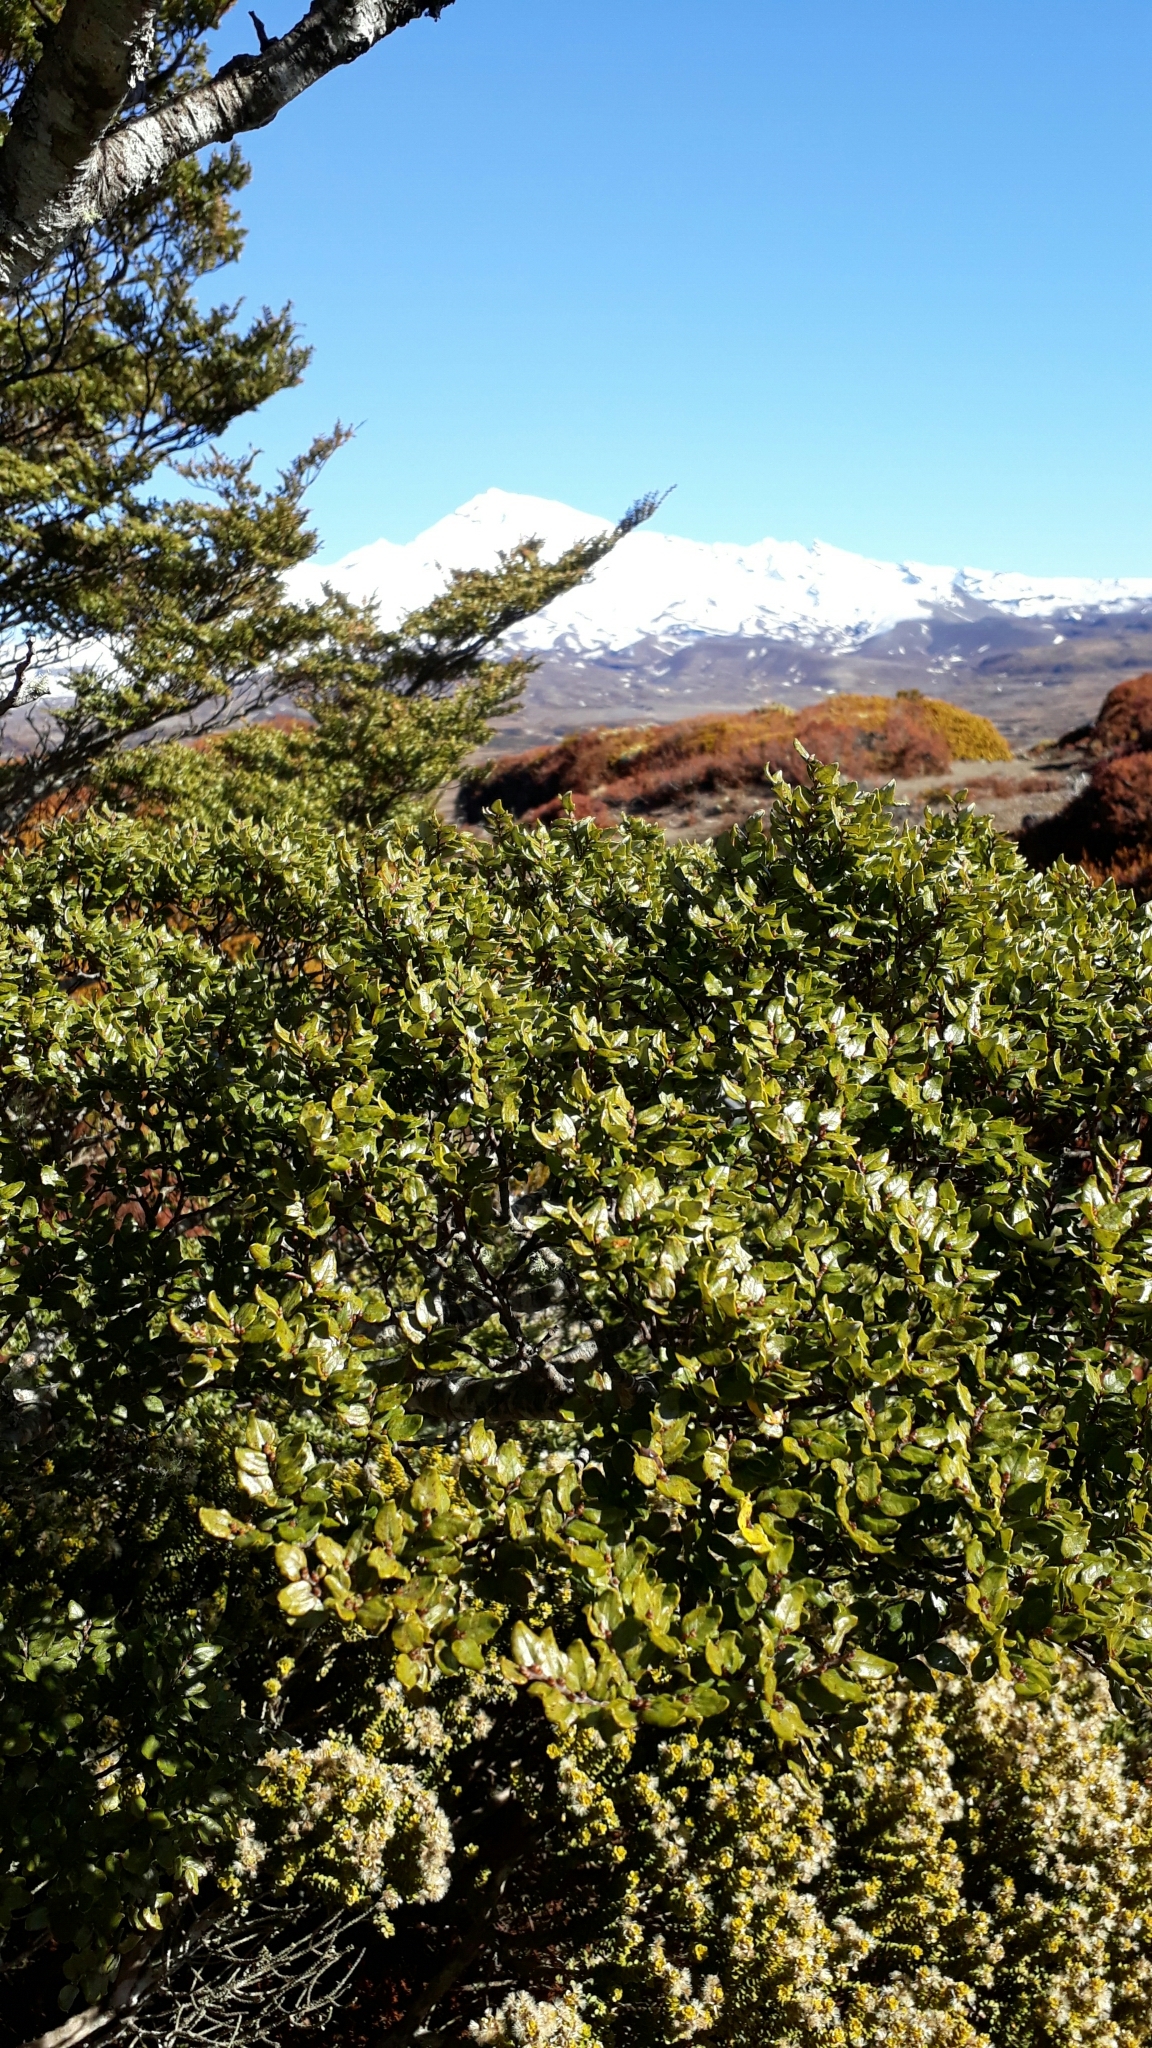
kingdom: Plantae
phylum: Tracheophyta
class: Magnoliopsida
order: Fagales
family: Nothofagaceae
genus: Nothofagus
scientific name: Nothofagus cliffortioides
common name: Mountain beech
